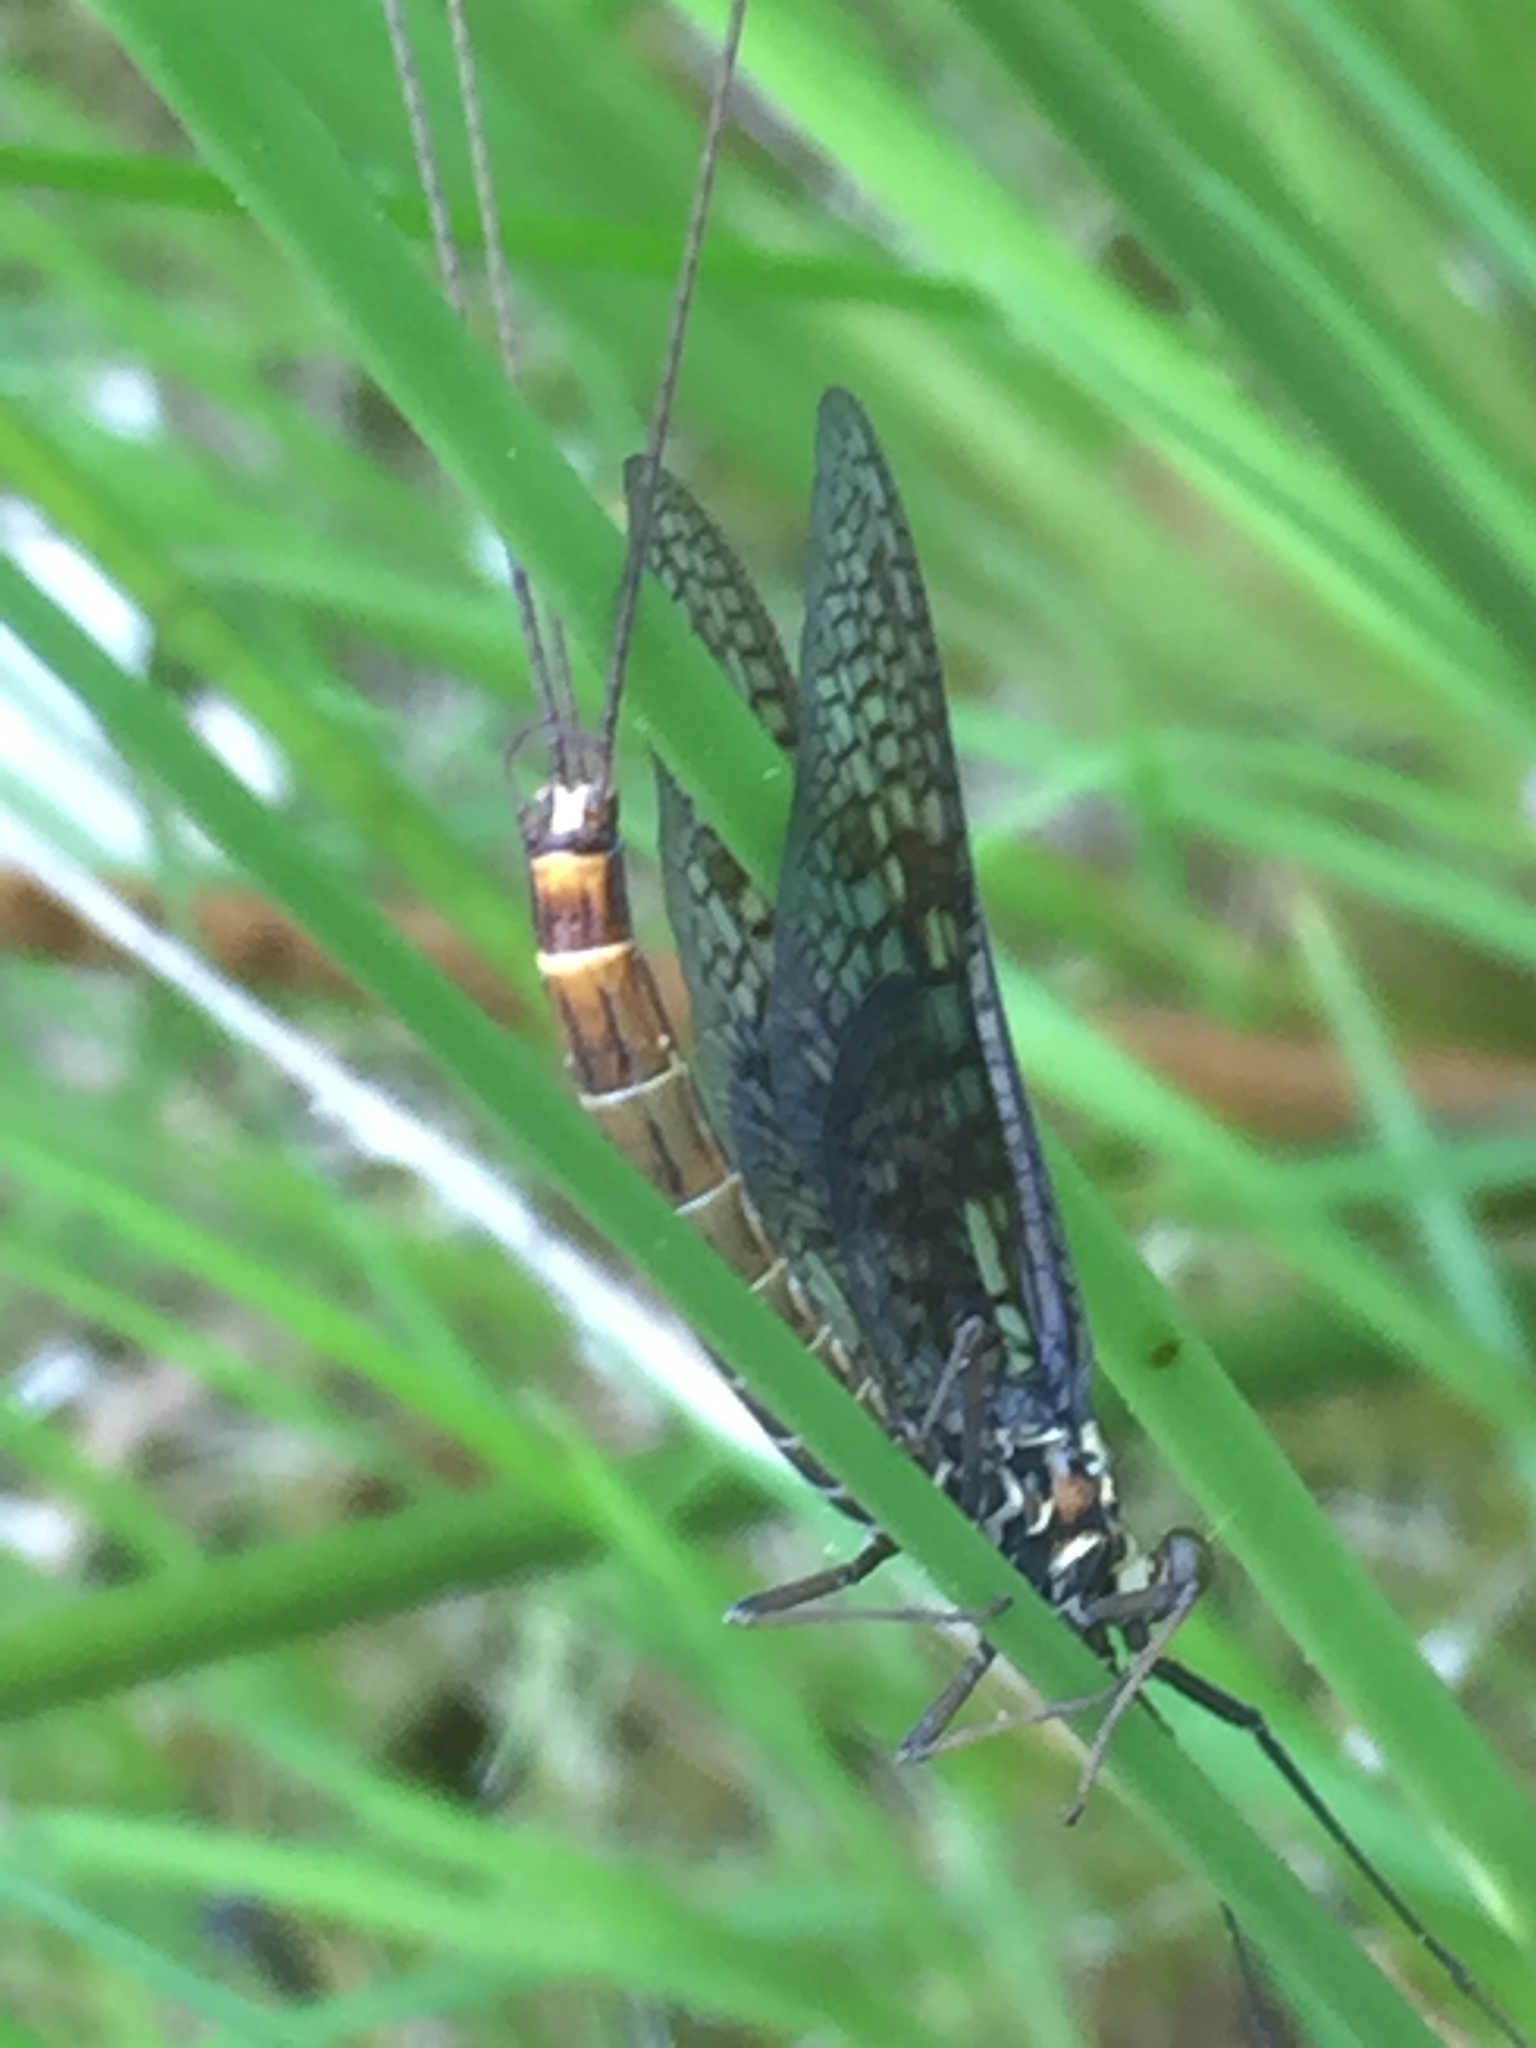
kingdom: Animalia
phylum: Arthropoda
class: Insecta
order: Ephemeroptera
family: Ephemeridae
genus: Ephemera
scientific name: Ephemera vulgata
